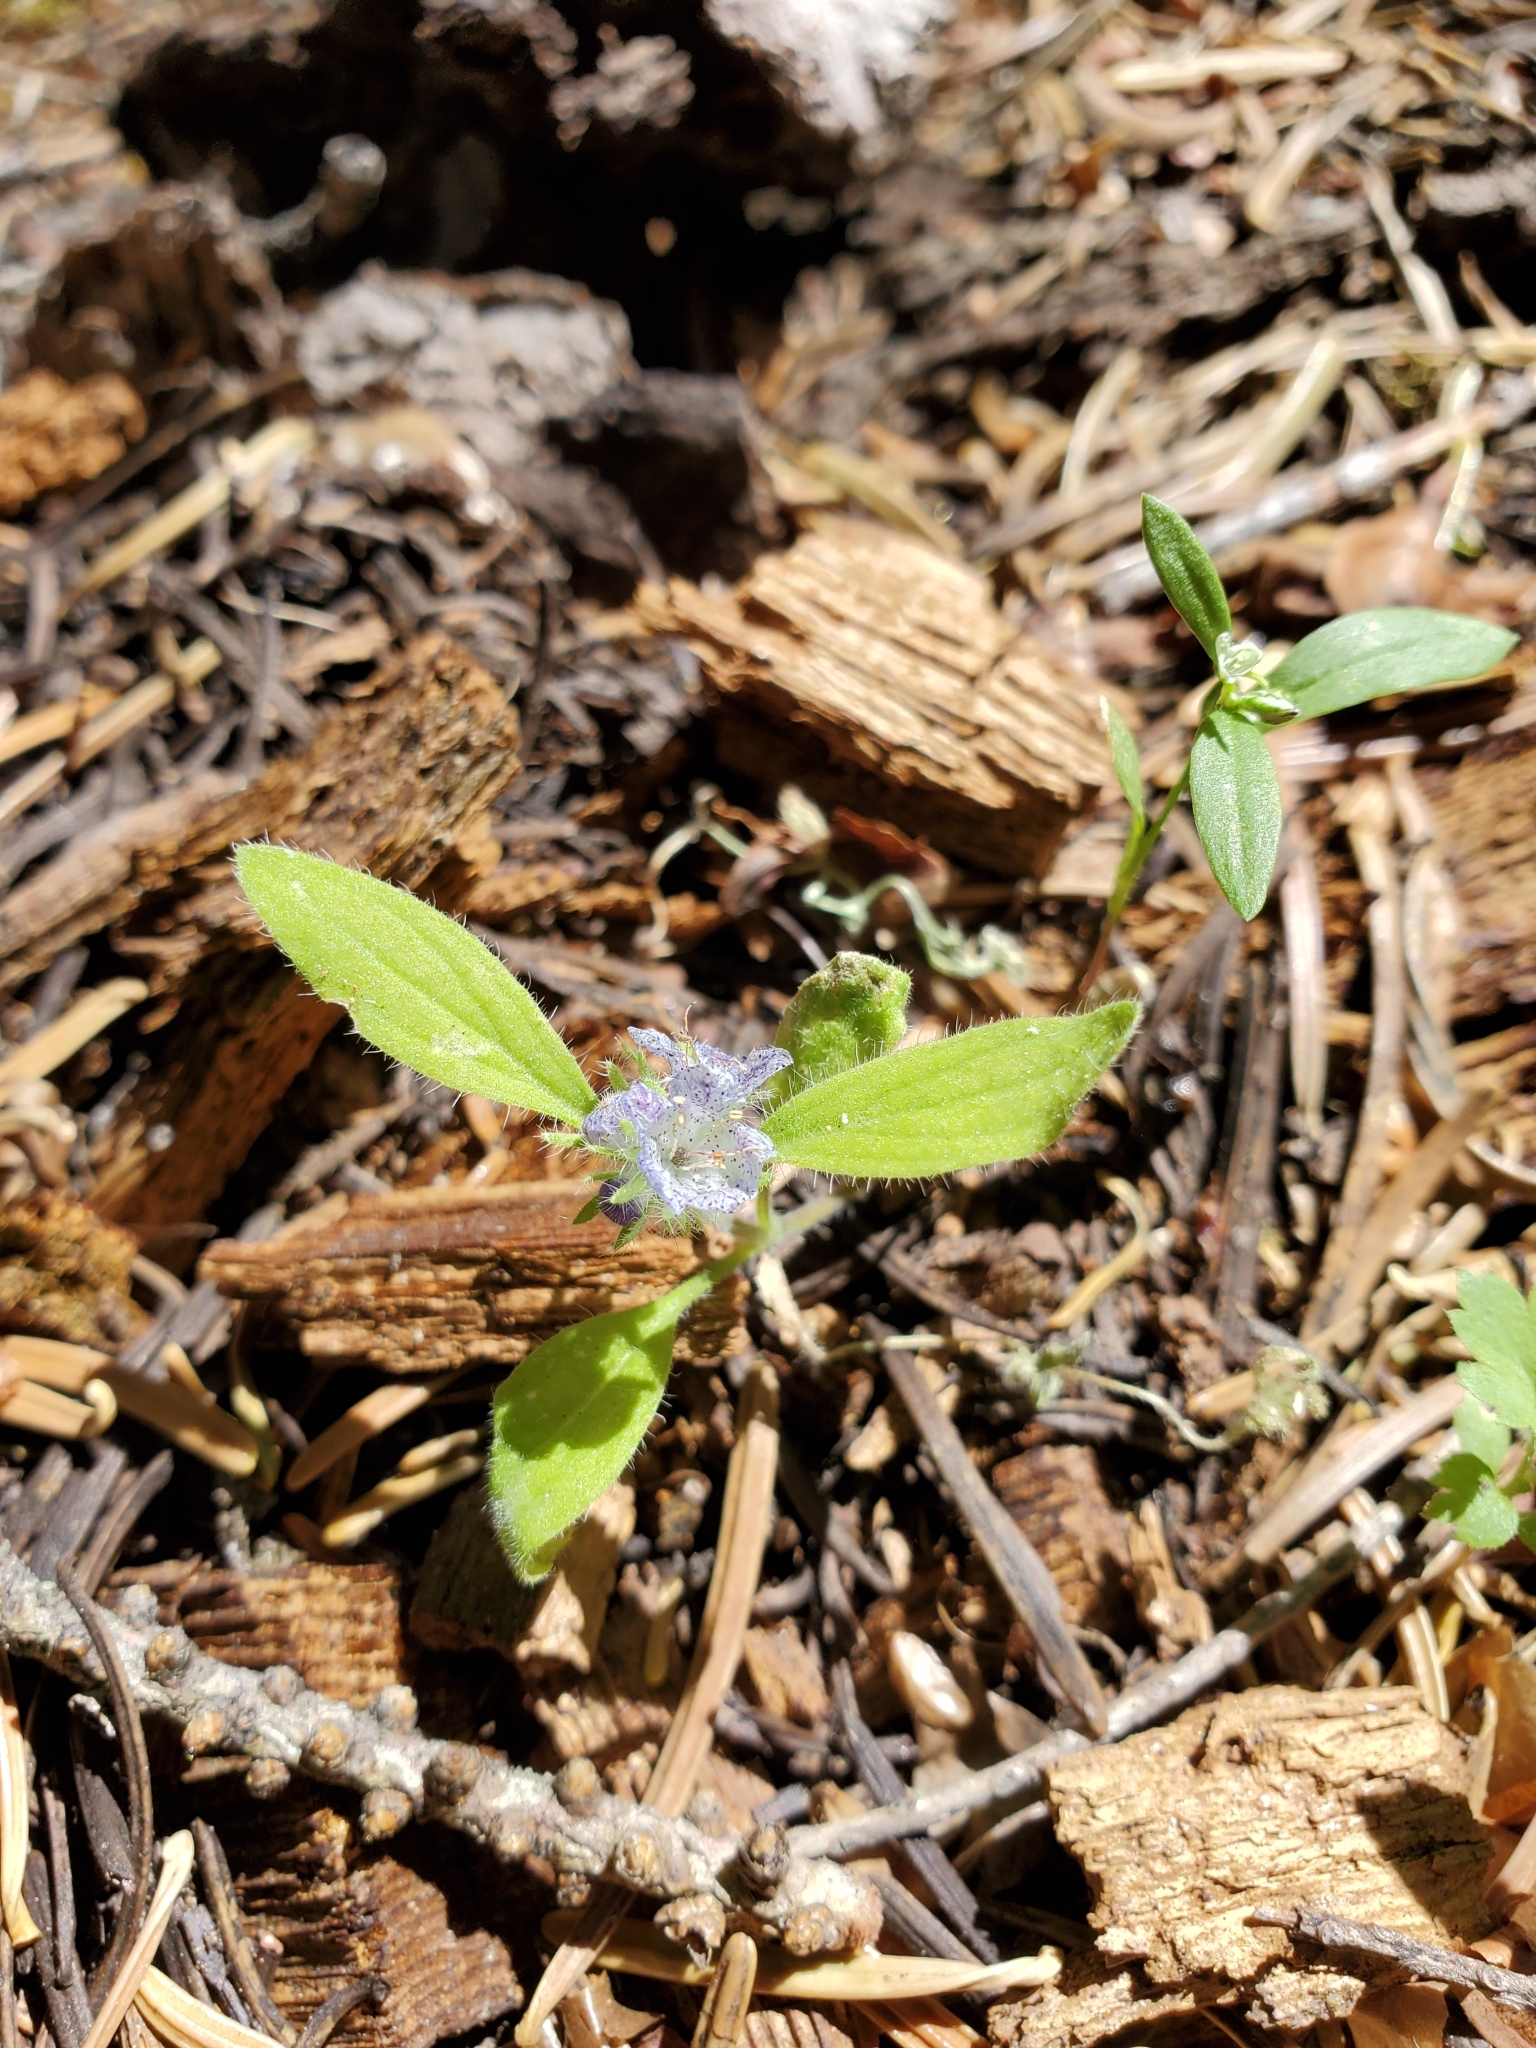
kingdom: Plantae
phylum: Tracheophyta
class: Magnoliopsida
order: Boraginales
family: Hydrophyllaceae
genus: Phacelia
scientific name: Phacelia humilis
